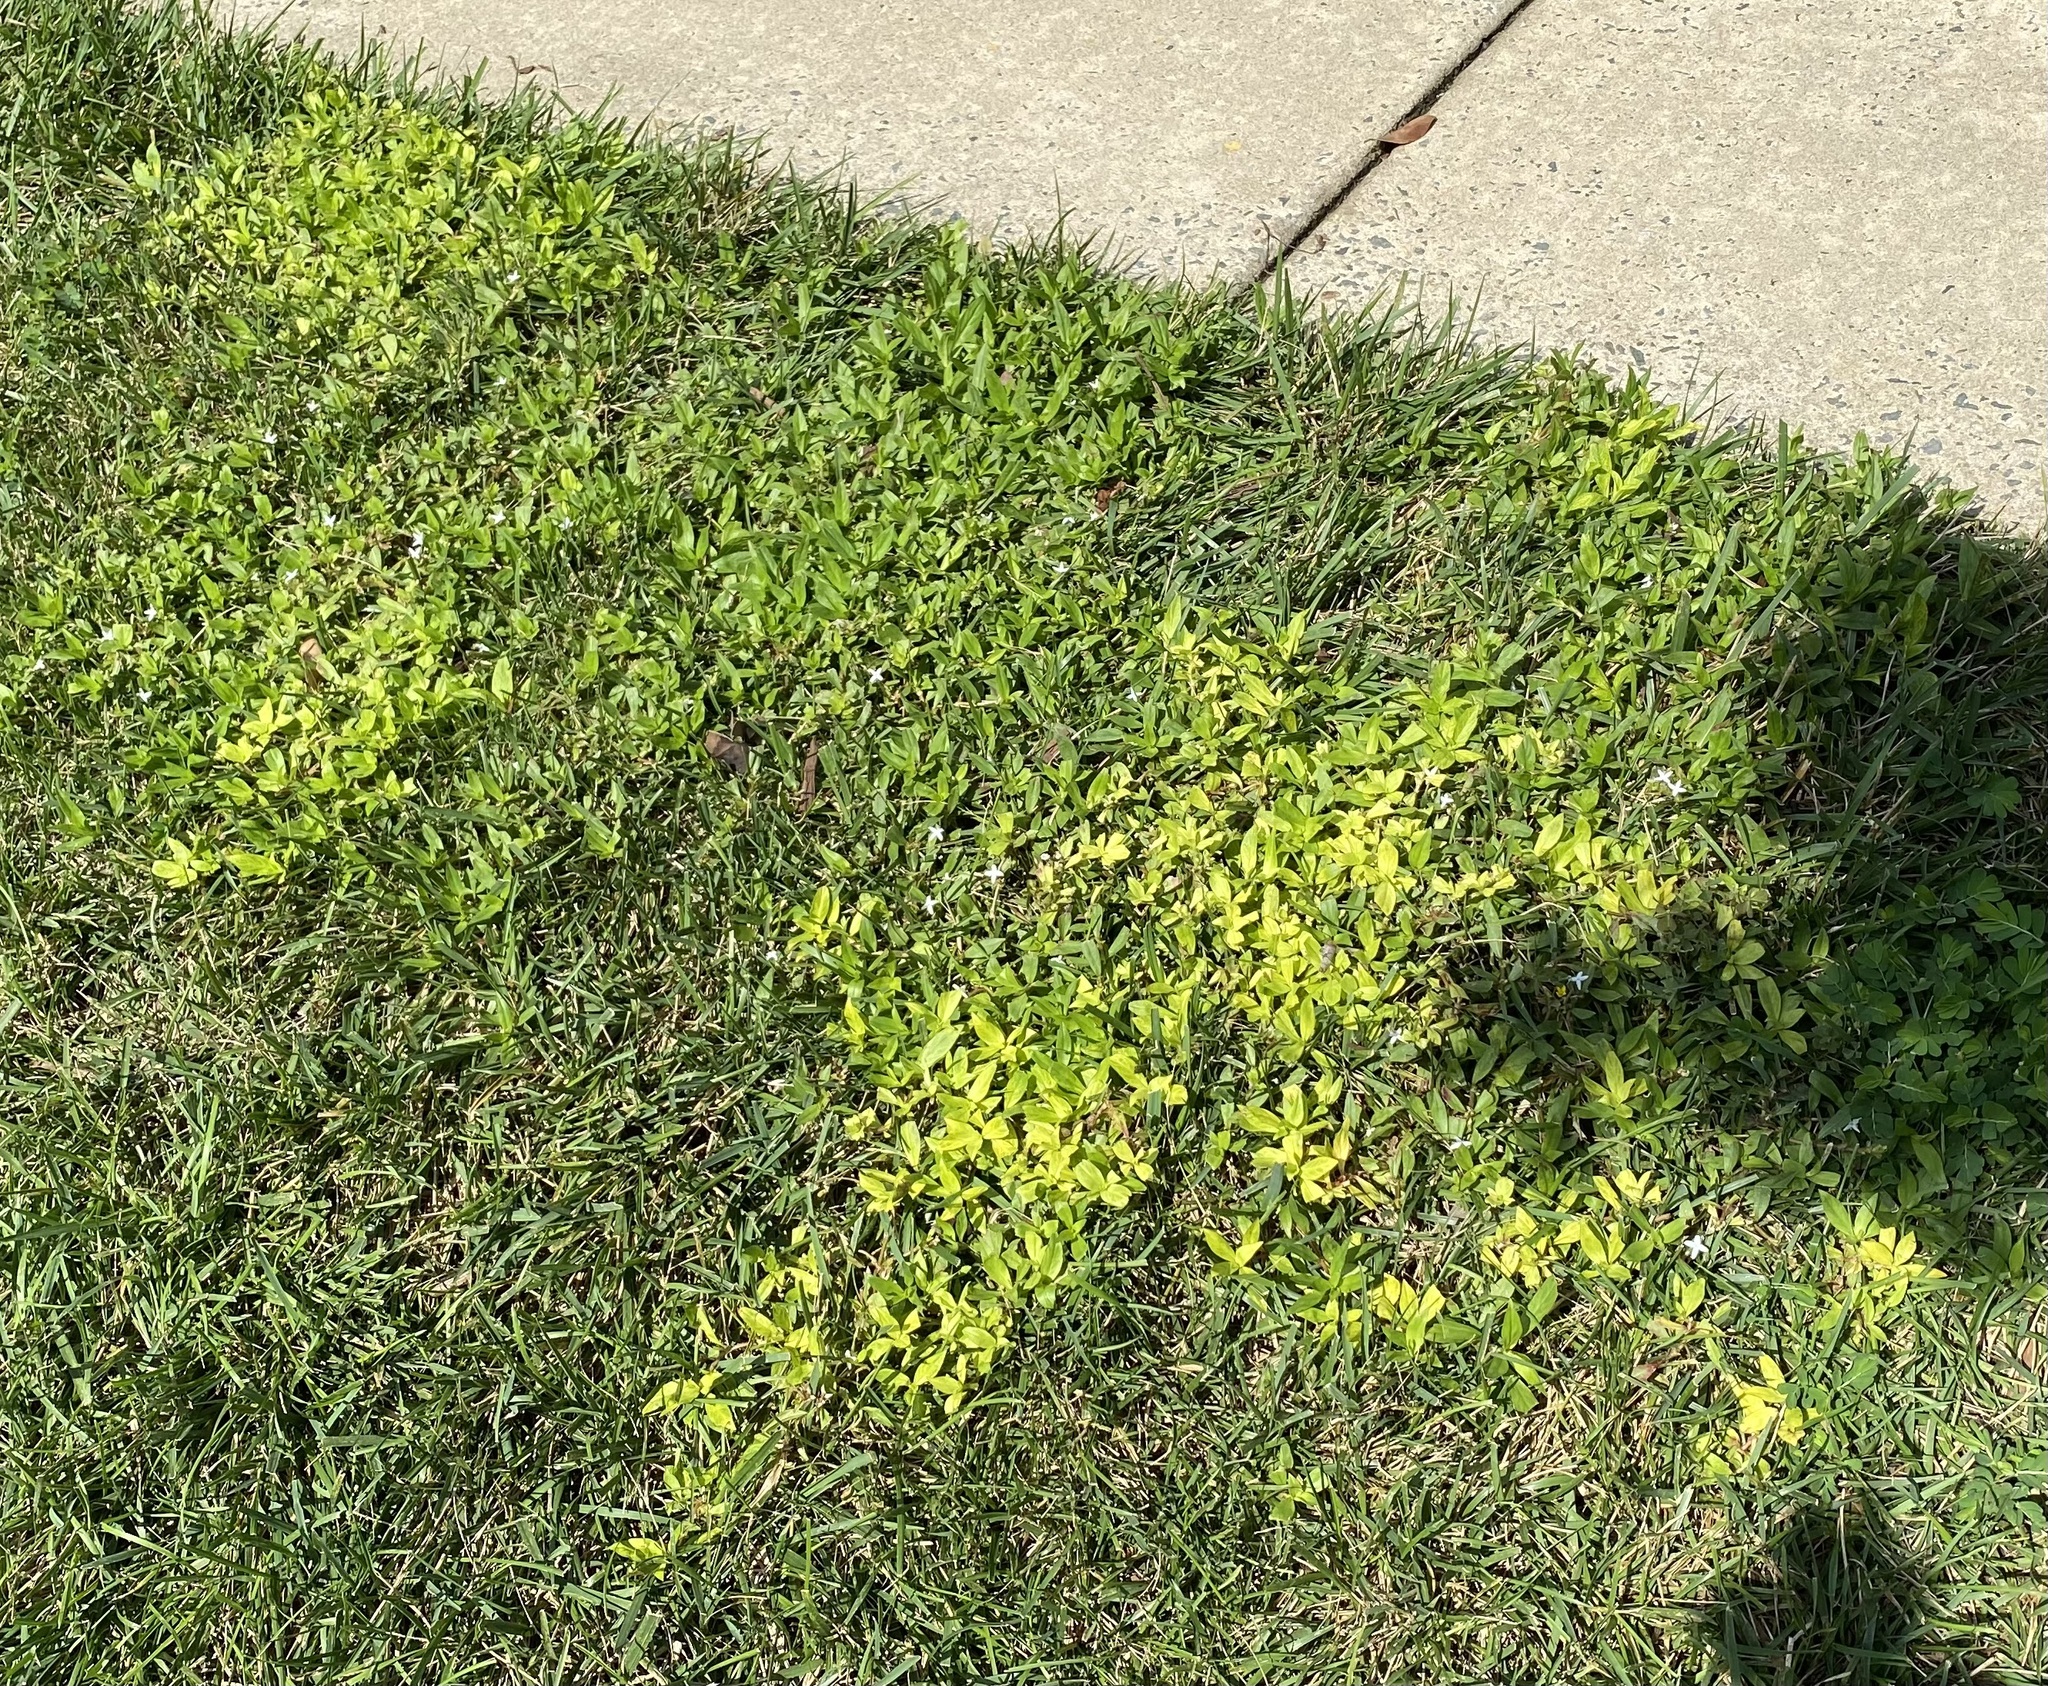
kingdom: Viruses
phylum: Kitrinoviricota
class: Alsuviricetes
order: Martellivirales
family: Closteroviridae
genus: Crinivirus
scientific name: Crinivirus Diodia vein chlorosis virus
